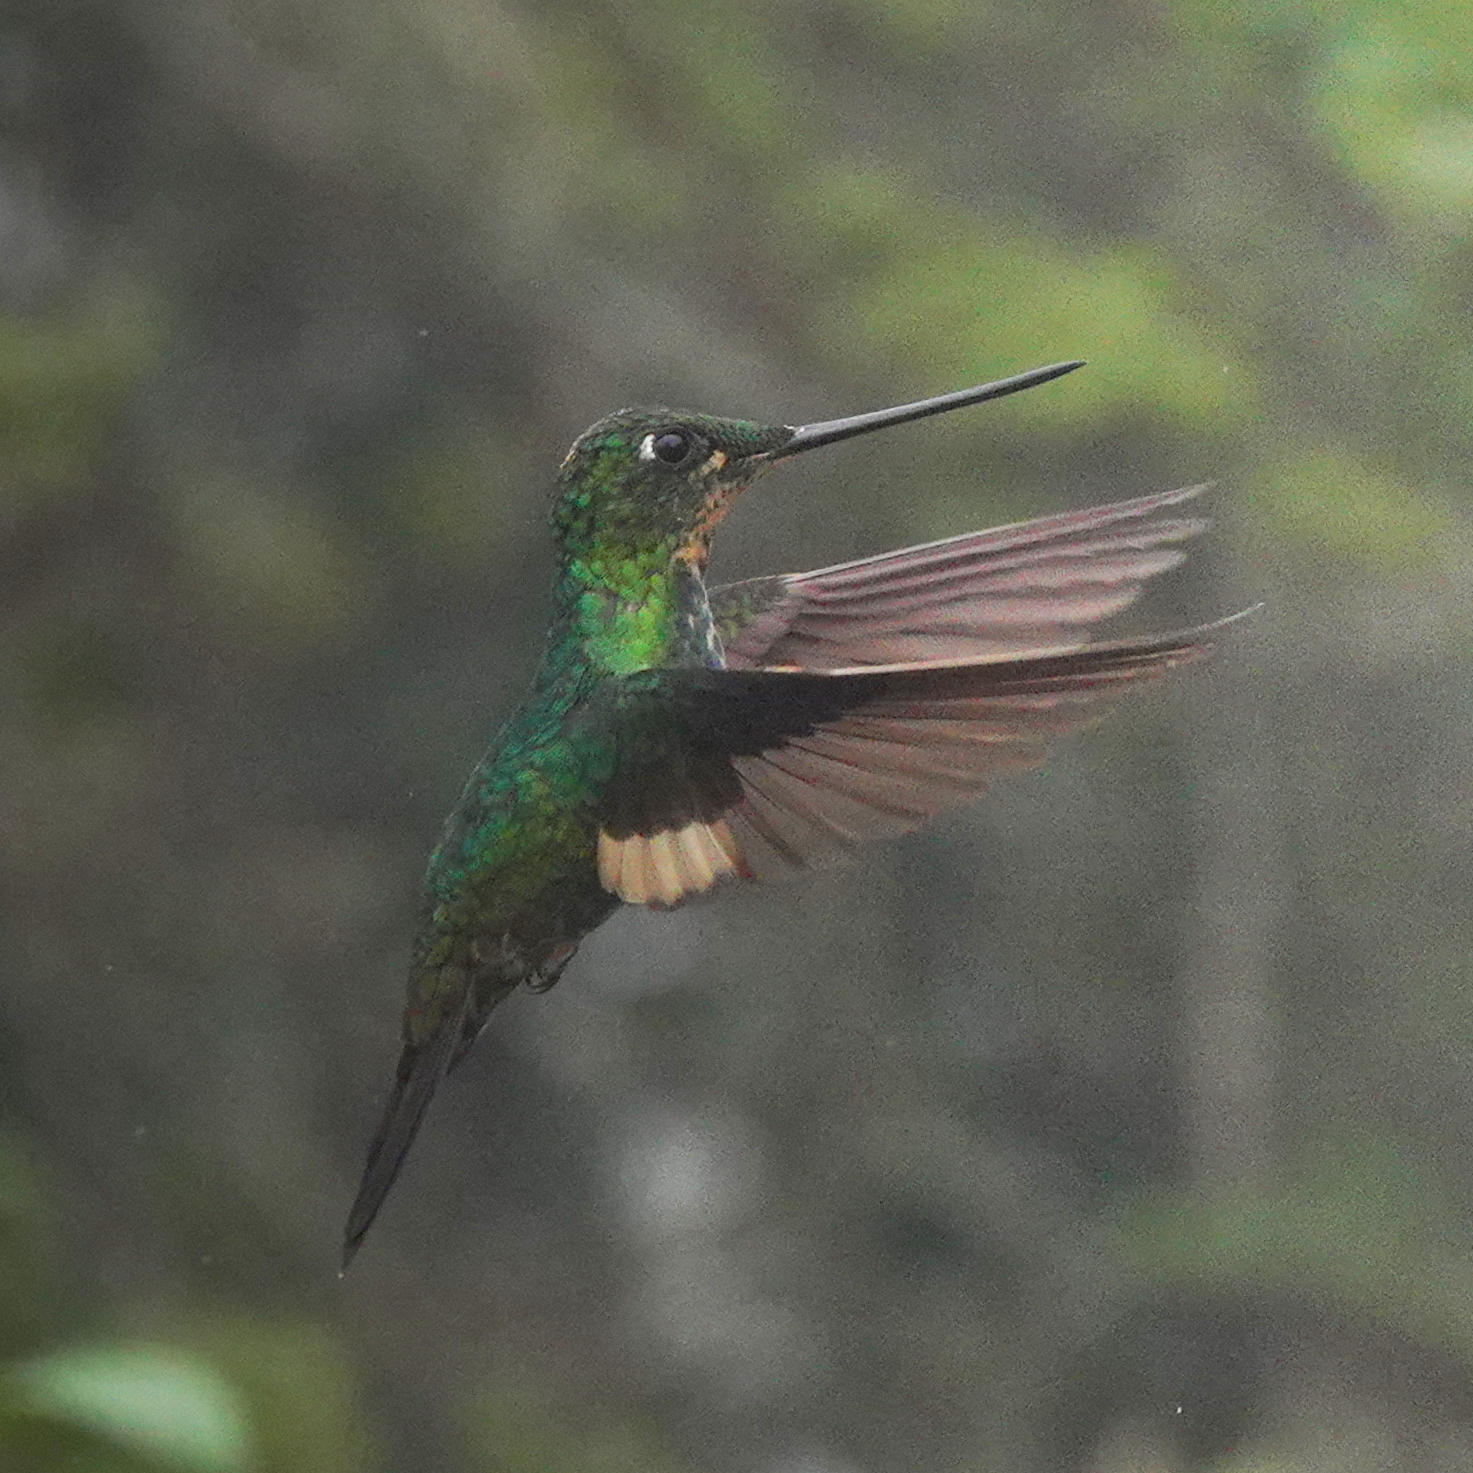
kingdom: Animalia
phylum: Chordata
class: Aves
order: Apodiformes
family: Trochilidae
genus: Coeligena
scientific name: Coeligena lutetiae
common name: Buff-winged starfrontlet
